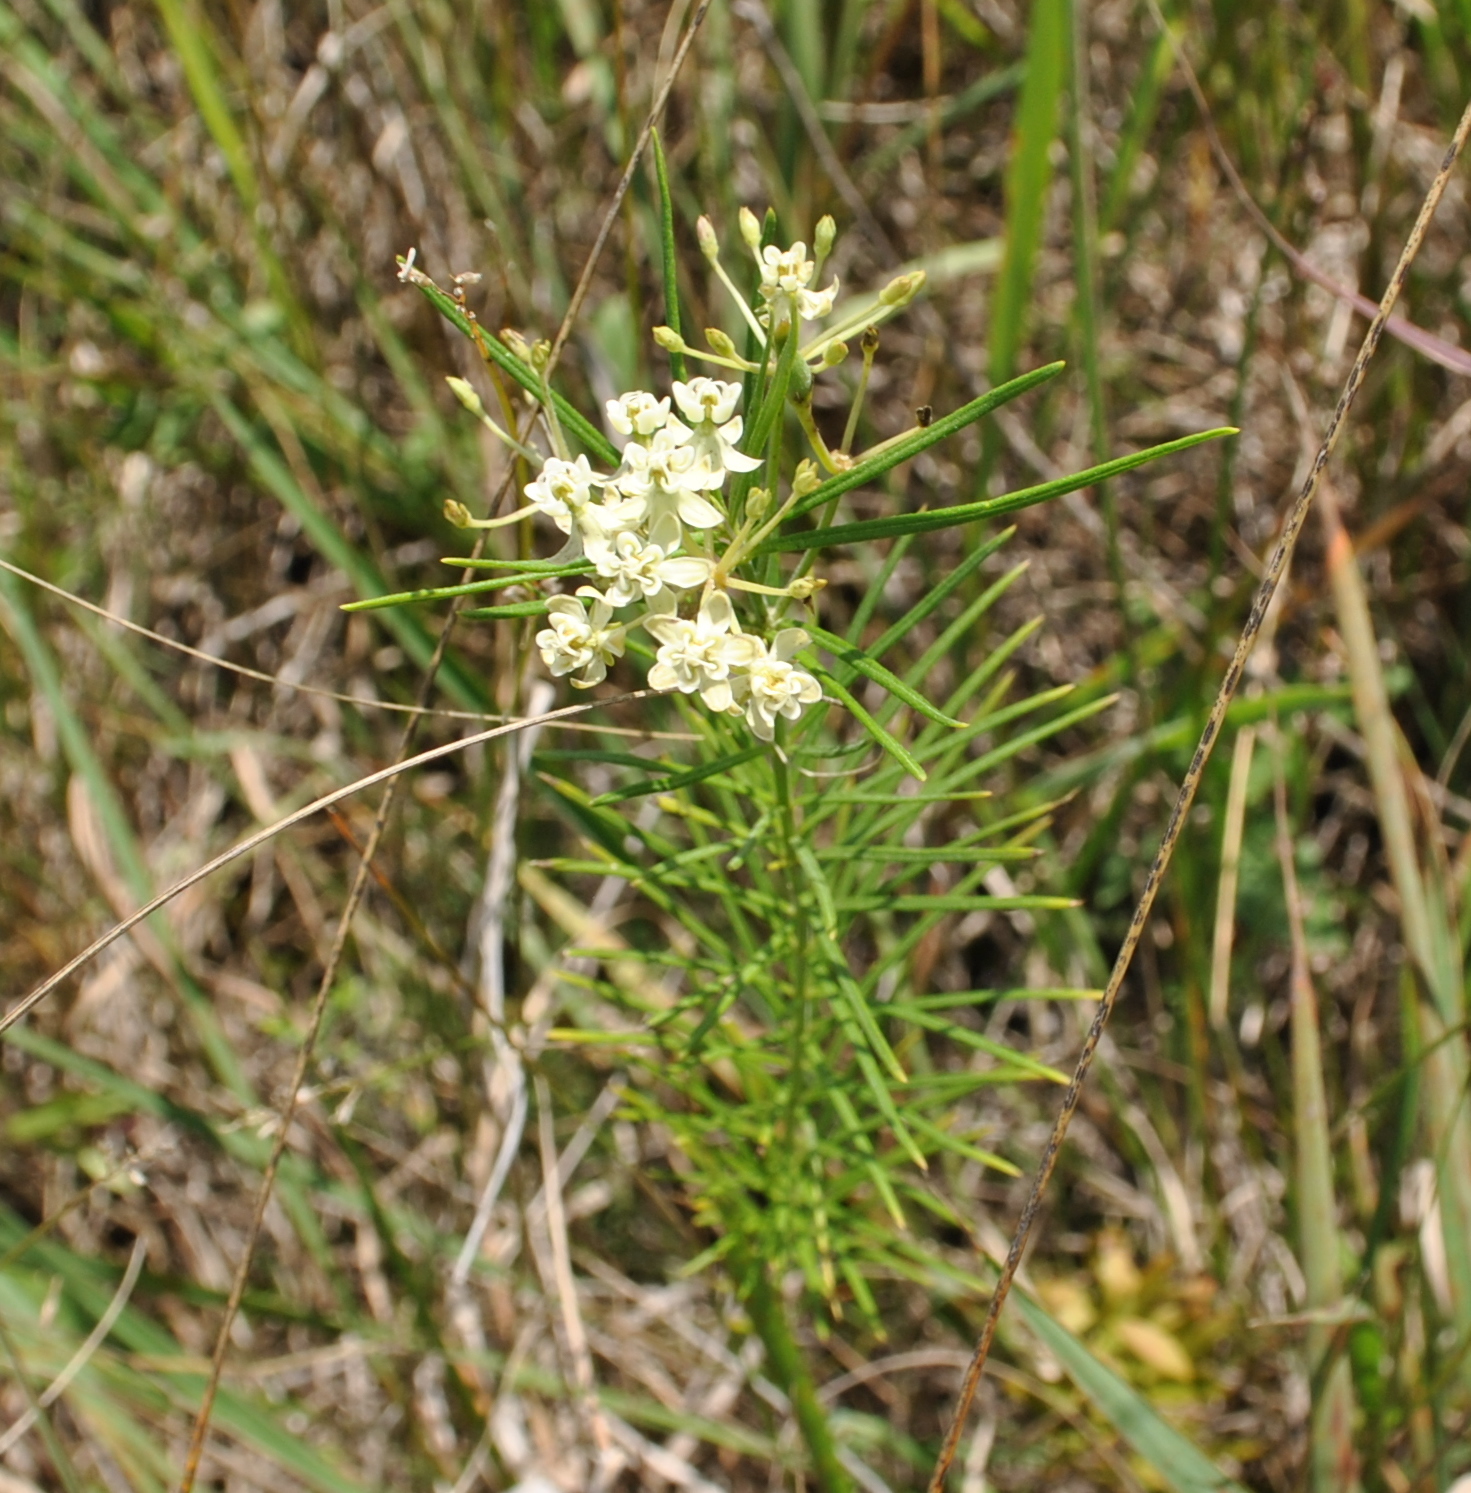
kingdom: Plantae
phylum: Tracheophyta
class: Magnoliopsida
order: Gentianales
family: Apocynaceae
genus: Asclepias
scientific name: Asclepias verticillata
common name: Eastern whorled milkweed
